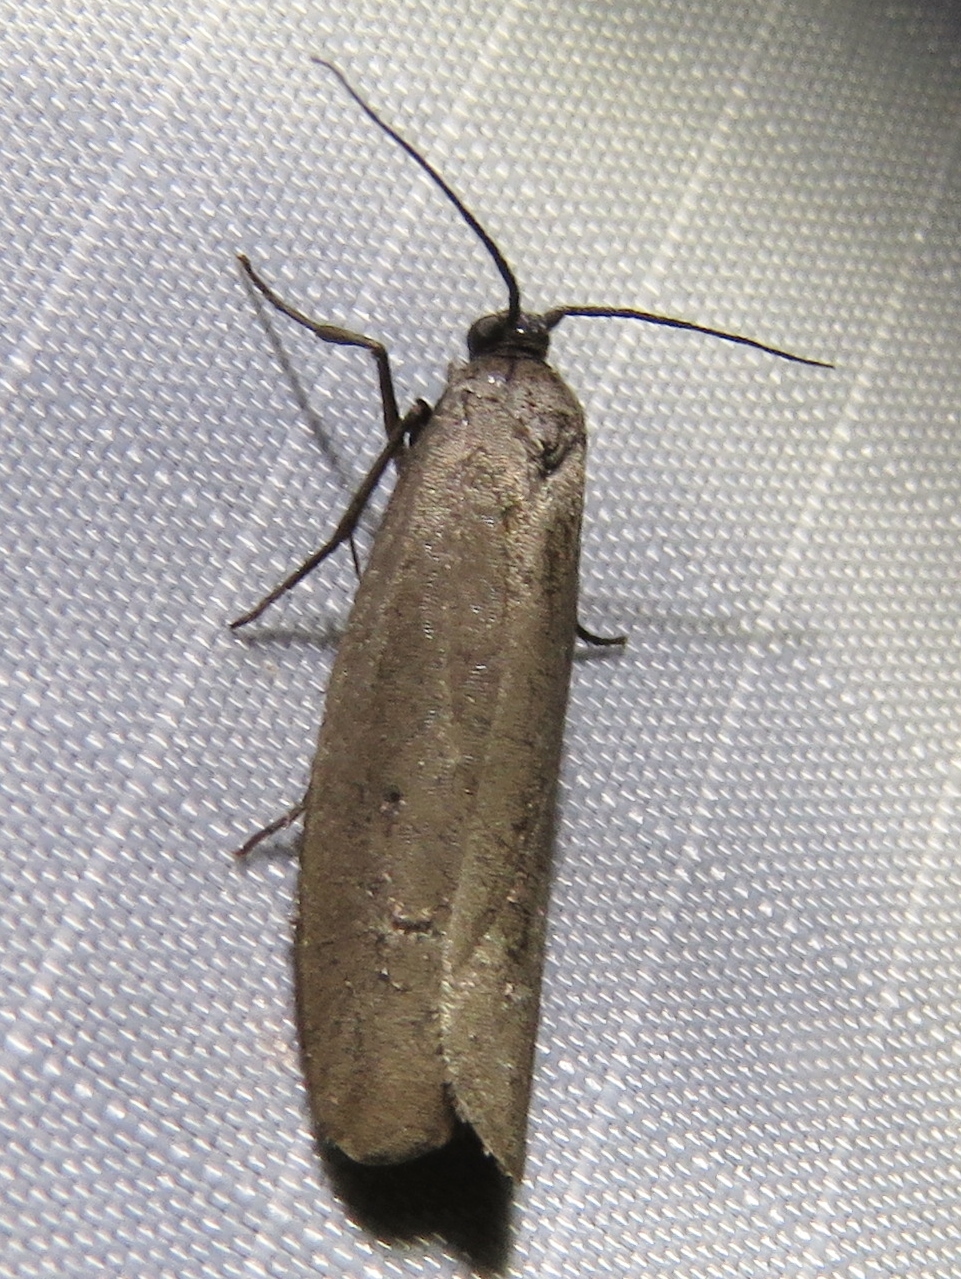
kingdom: Animalia
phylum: Arthropoda
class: Insecta
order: Lepidoptera
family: Urodidae
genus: Urodus
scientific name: Urodus parvula
